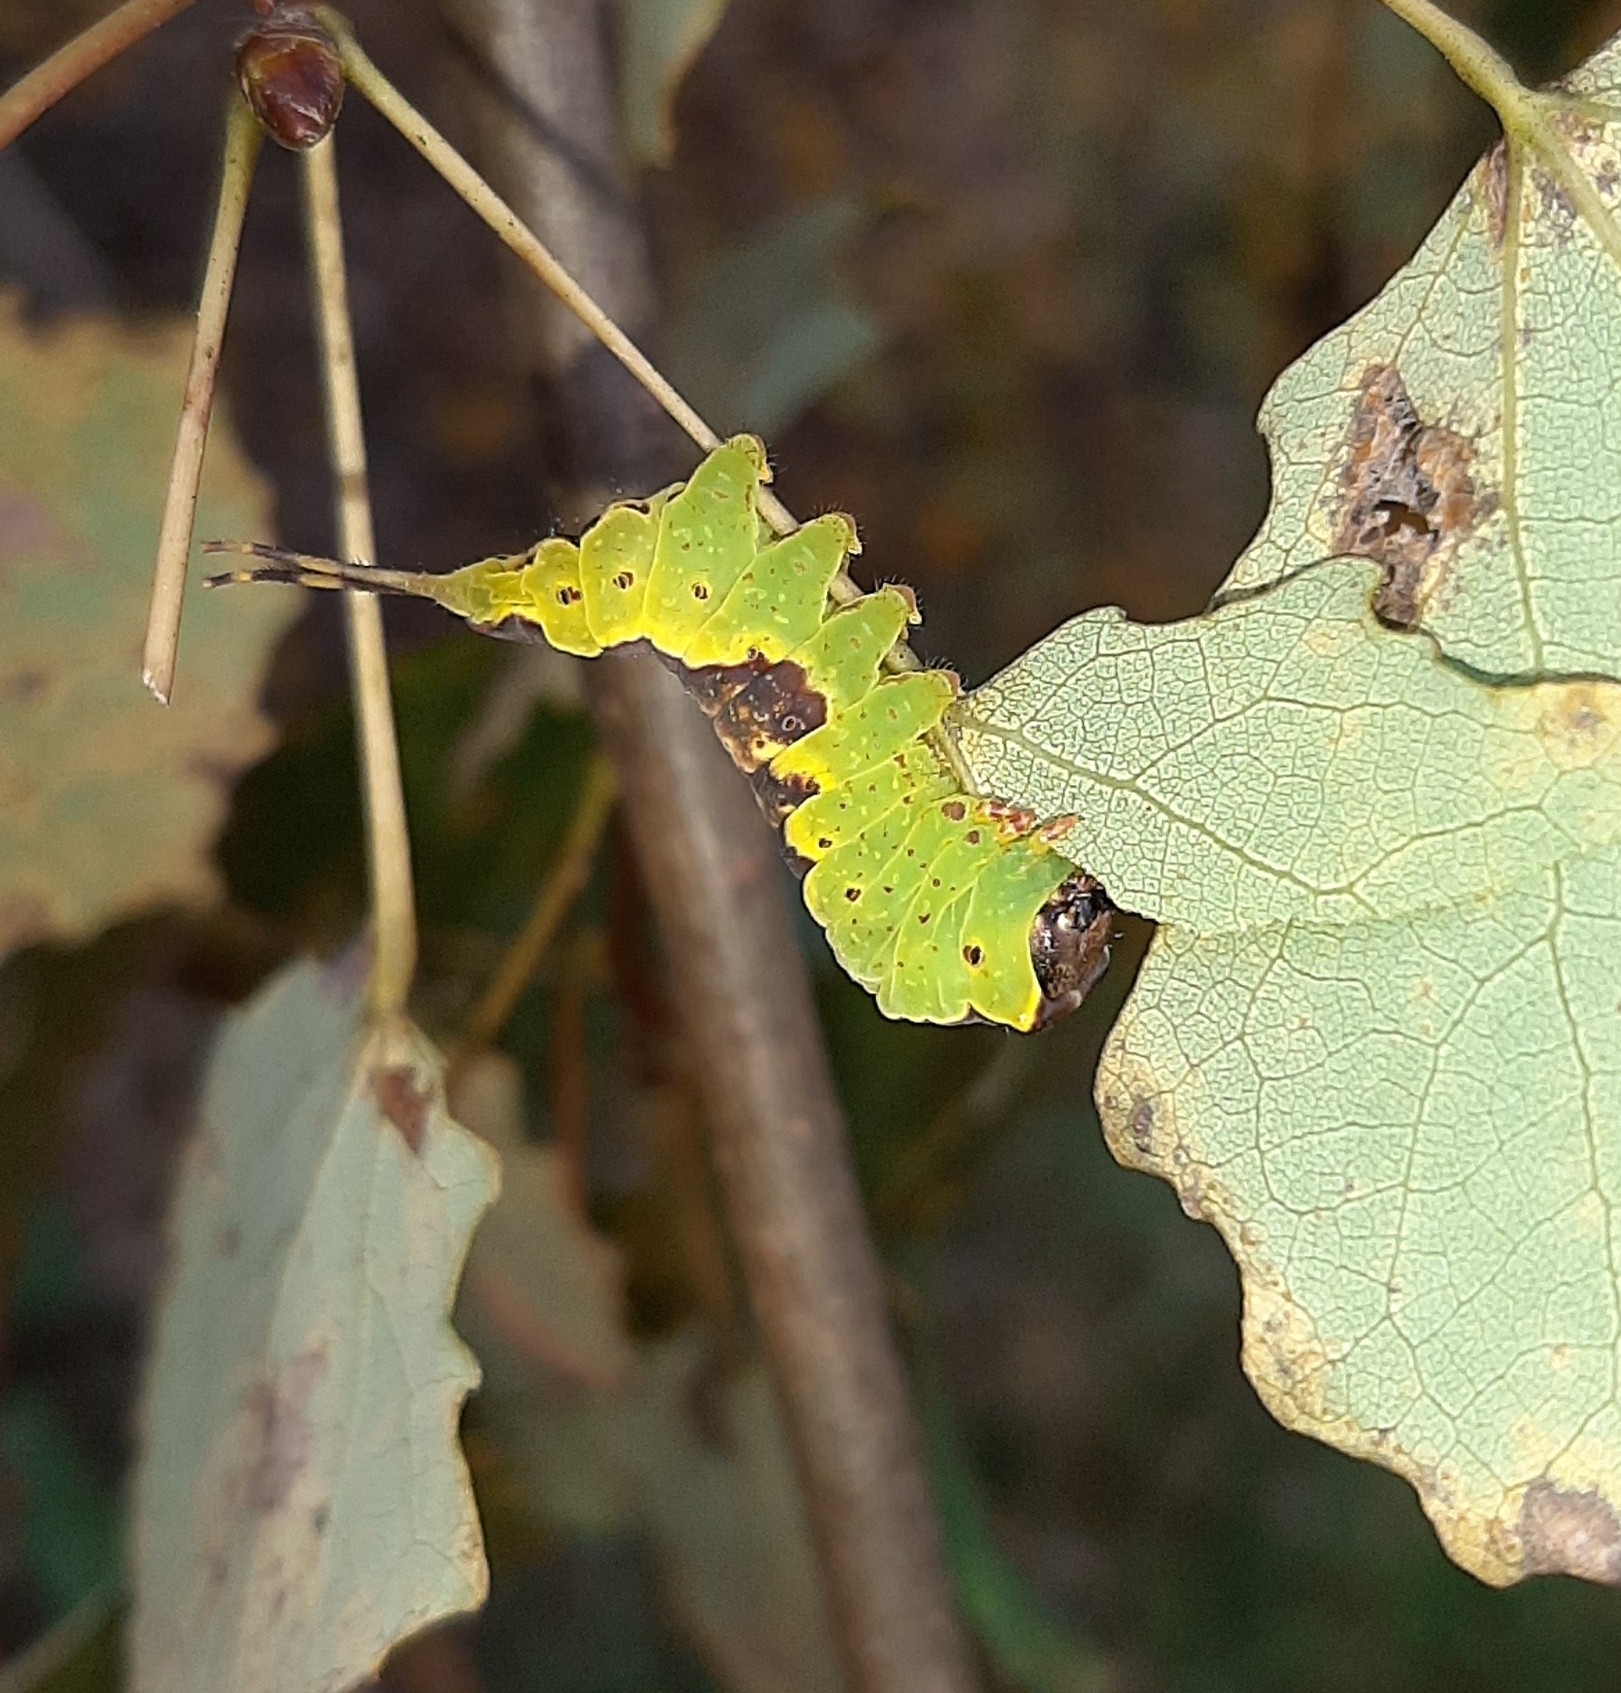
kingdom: Animalia
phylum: Arthropoda
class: Insecta
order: Lepidoptera
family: Notodontidae
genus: Furcula
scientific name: Furcula bifida
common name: Poplar kitten
